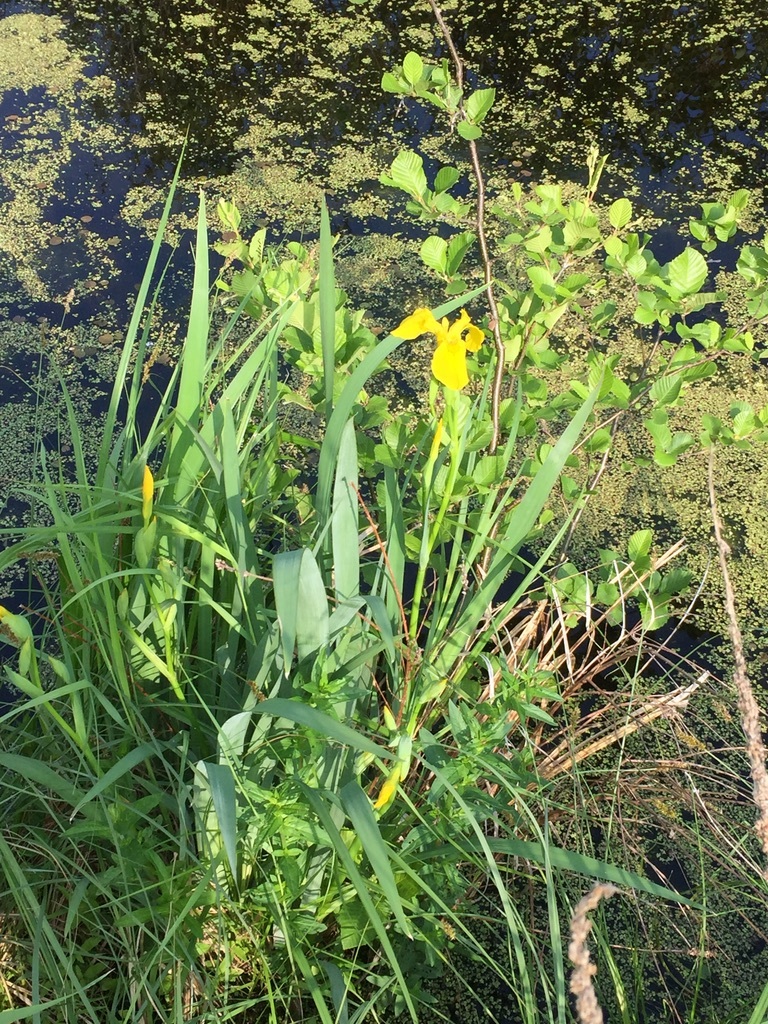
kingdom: Plantae
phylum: Tracheophyta
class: Liliopsida
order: Asparagales
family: Iridaceae
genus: Iris
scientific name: Iris pseudacorus
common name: Yellow flag
